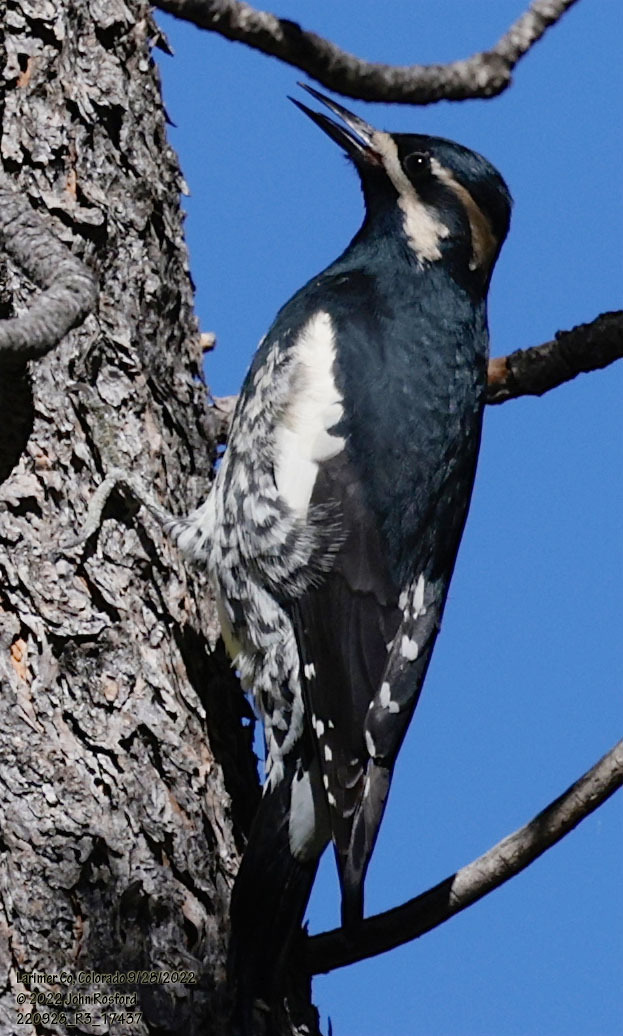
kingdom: Animalia
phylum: Chordata
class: Aves
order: Piciformes
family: Picidae
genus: Sphyrapicus
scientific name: Sphyrapicus thyroideus
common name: Williamson's sapsucker
